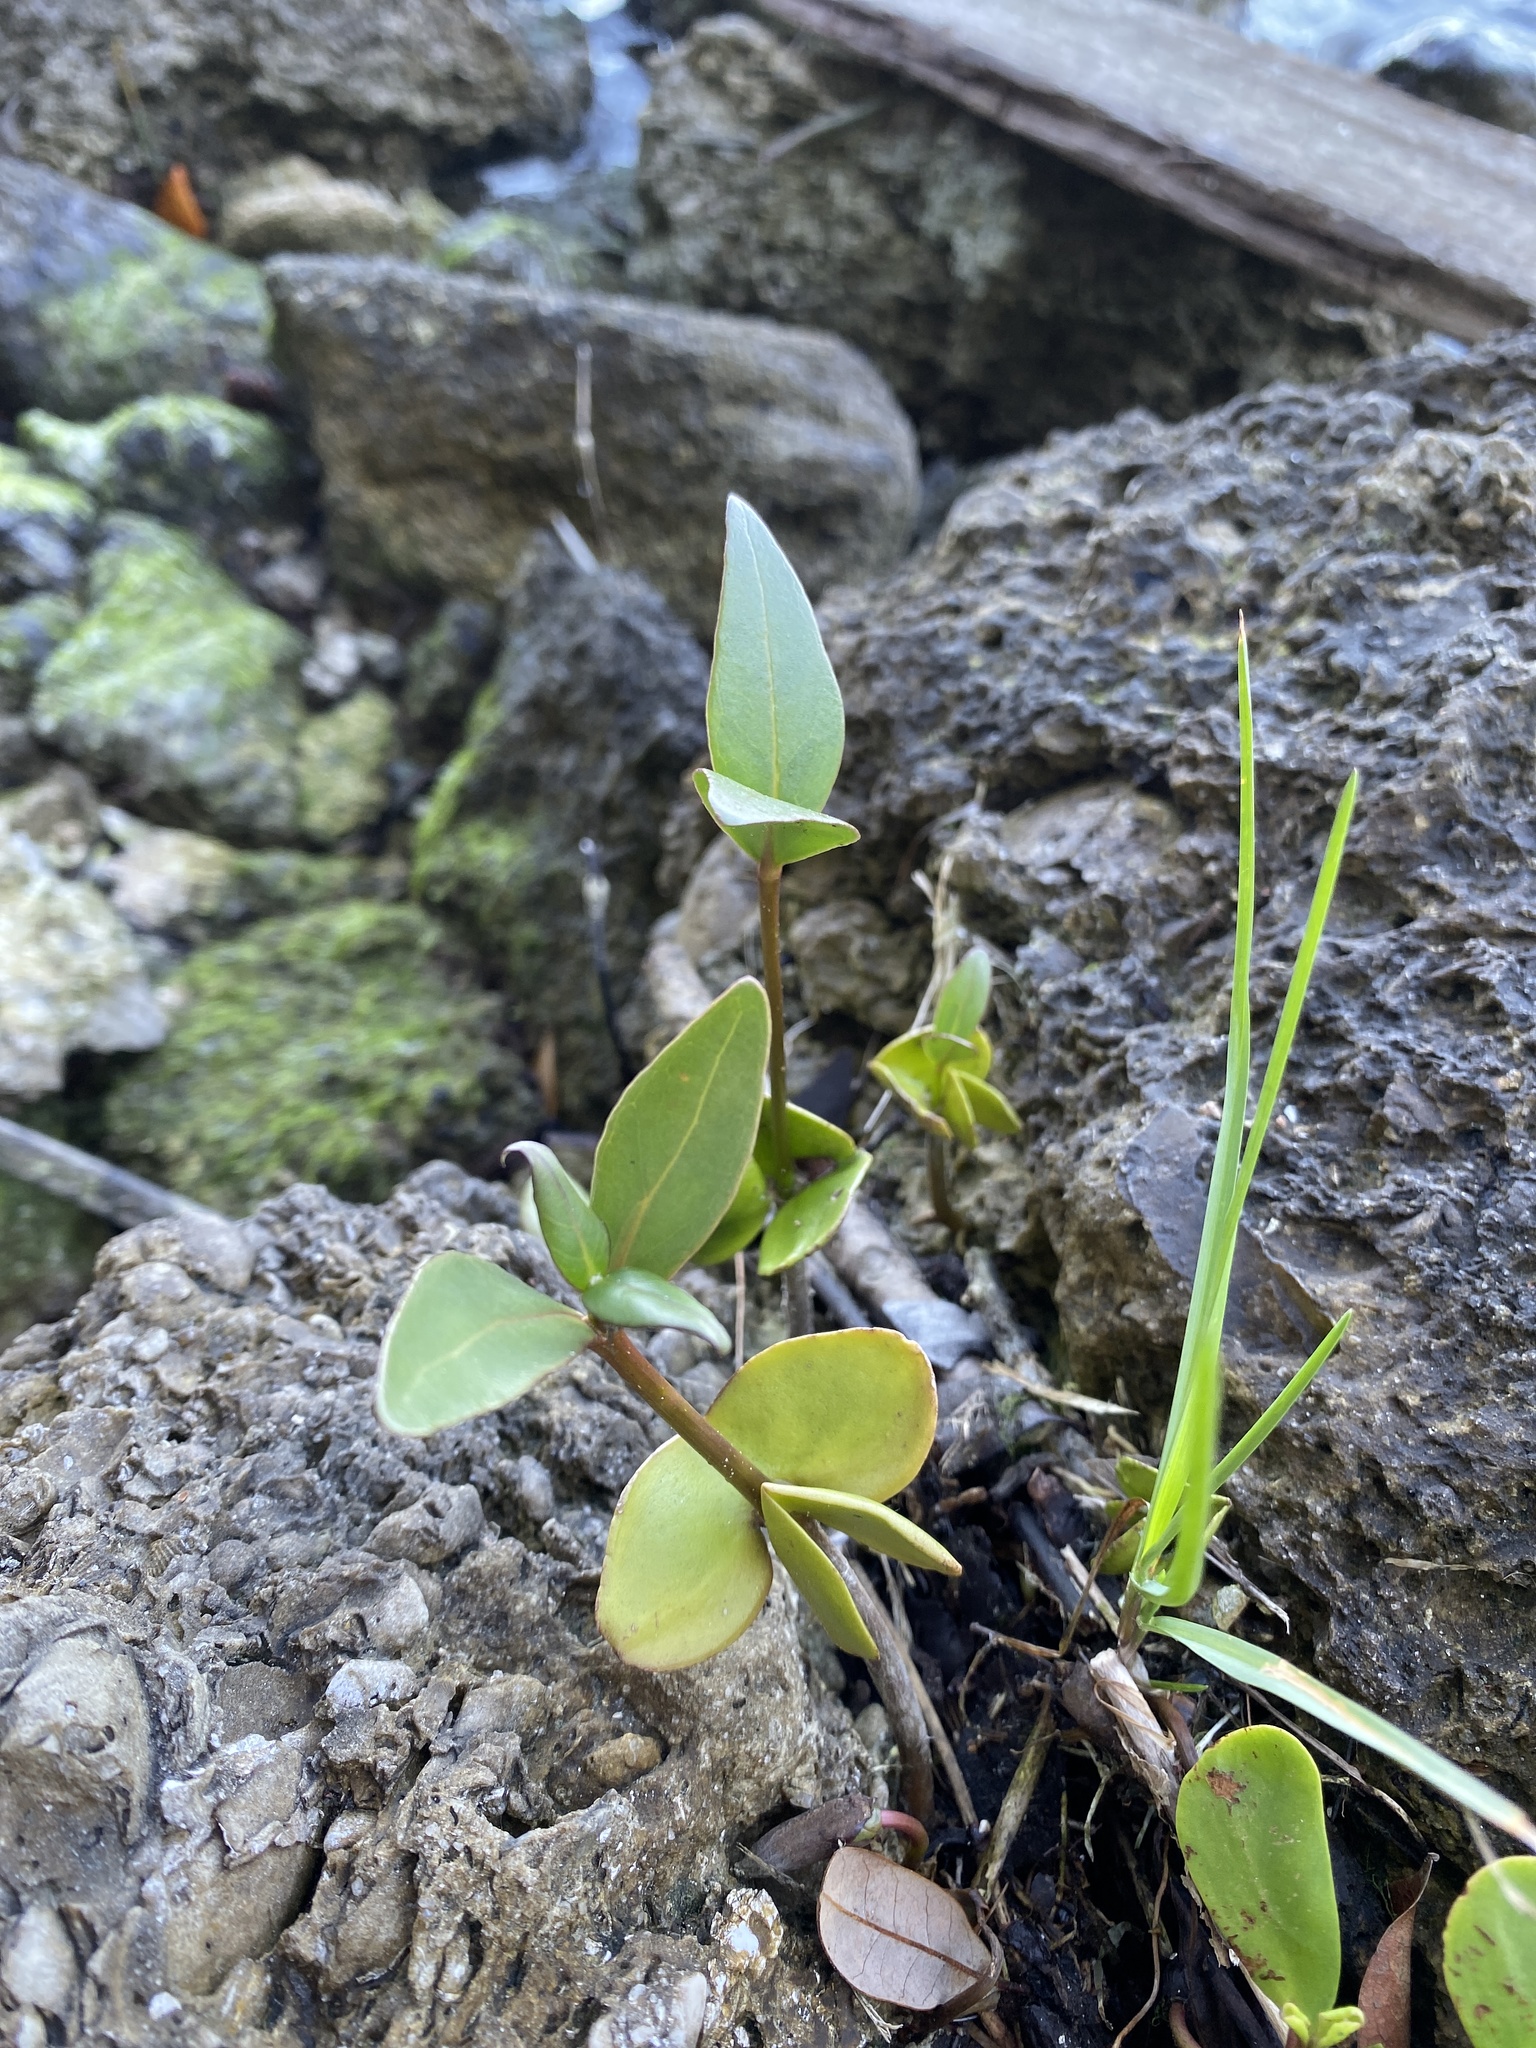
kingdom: Plantae
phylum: Tracheophyta
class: Magnoliopsida
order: Lamiales
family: Acanthaceae
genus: Avicennia
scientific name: Avicennia germinans
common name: Black mangrove
